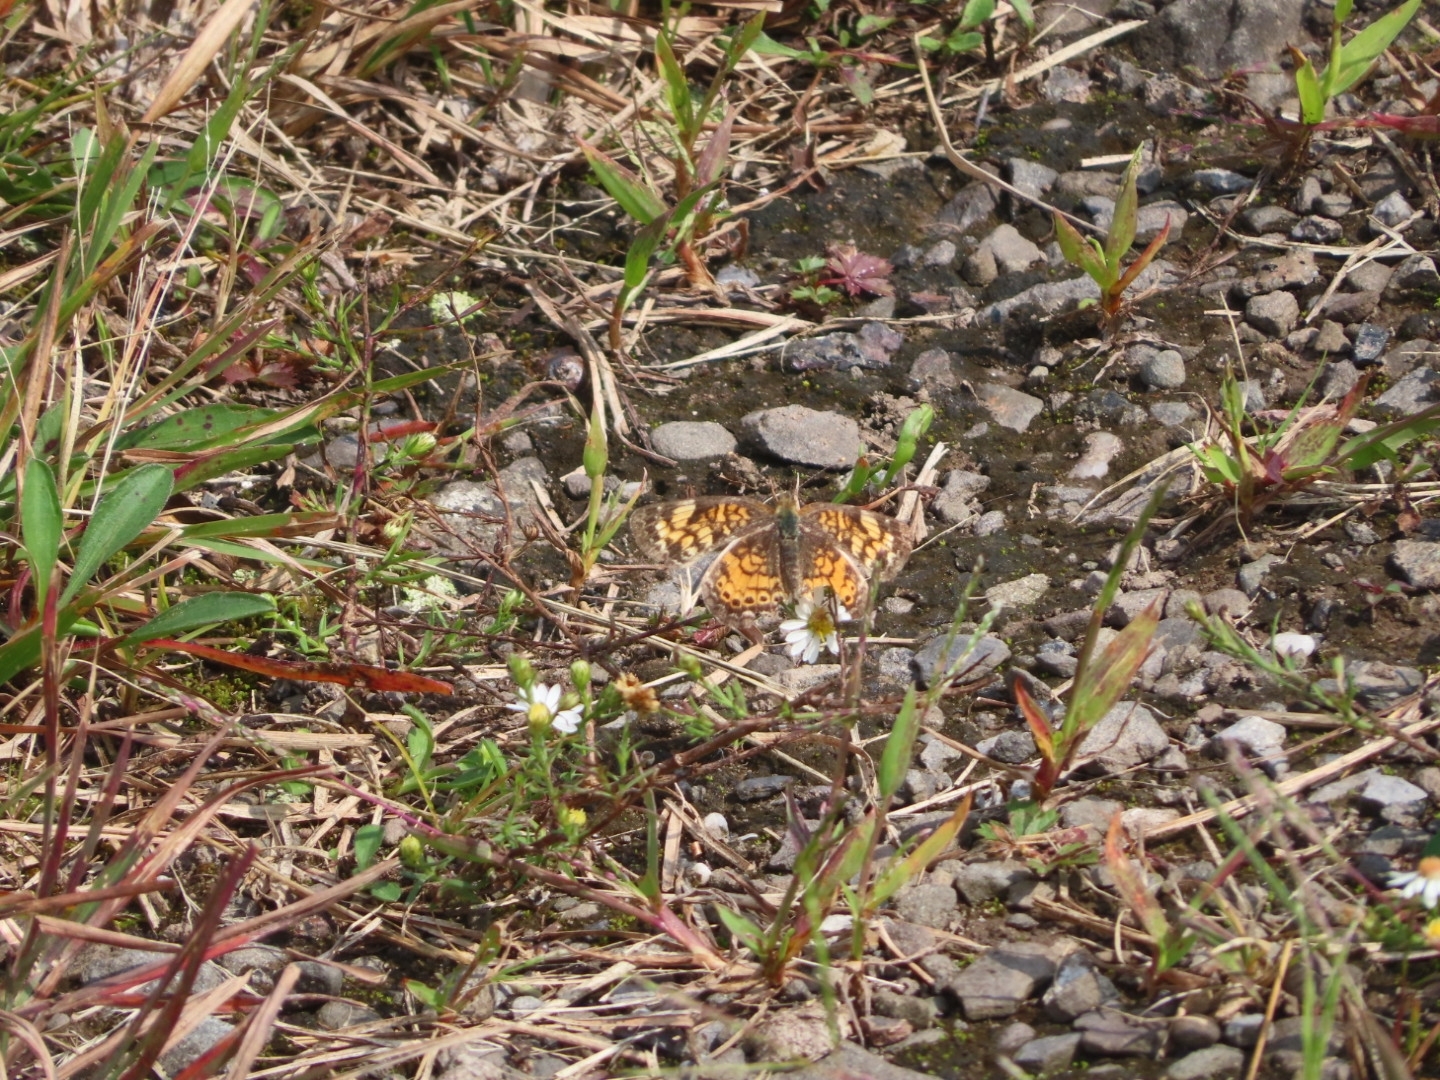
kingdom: Animalia
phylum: Arthropoda
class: Insecta
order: Lepidoptera
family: Nymphalidae
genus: Phyciodes
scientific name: Phyciodes tharos
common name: Pearl crescent
